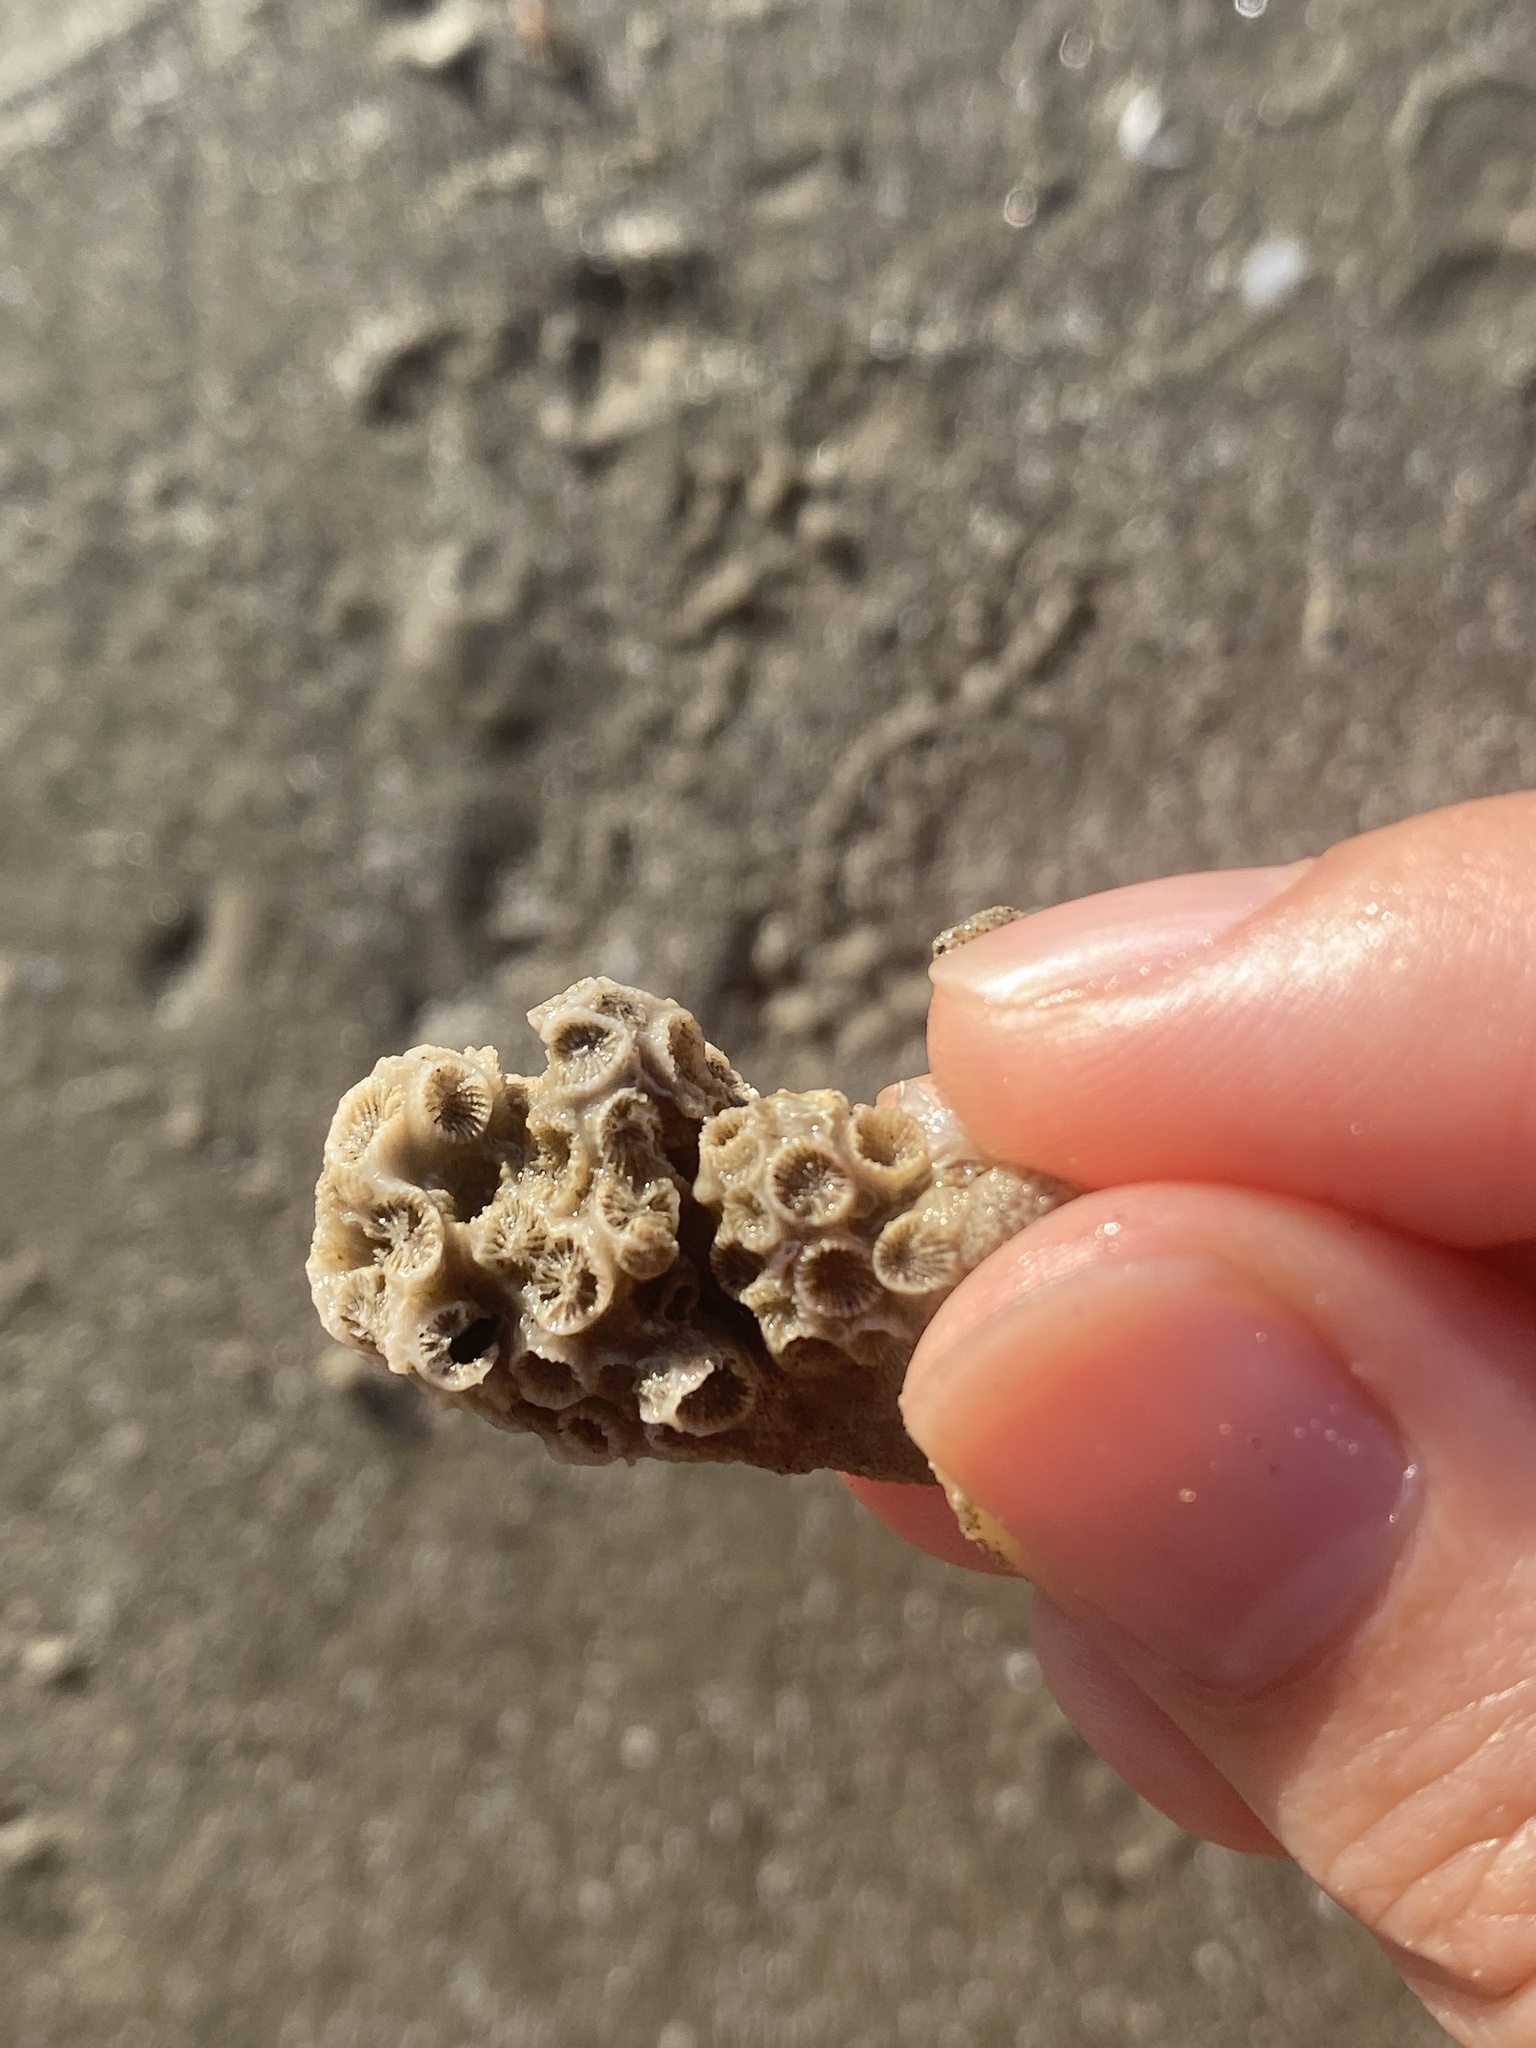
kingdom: Animalia
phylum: Cnidaria
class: Anthozoa
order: Scleractinia
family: Astrangiidae
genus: Astrangia
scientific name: Astrangia poculata
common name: Northern star coral
